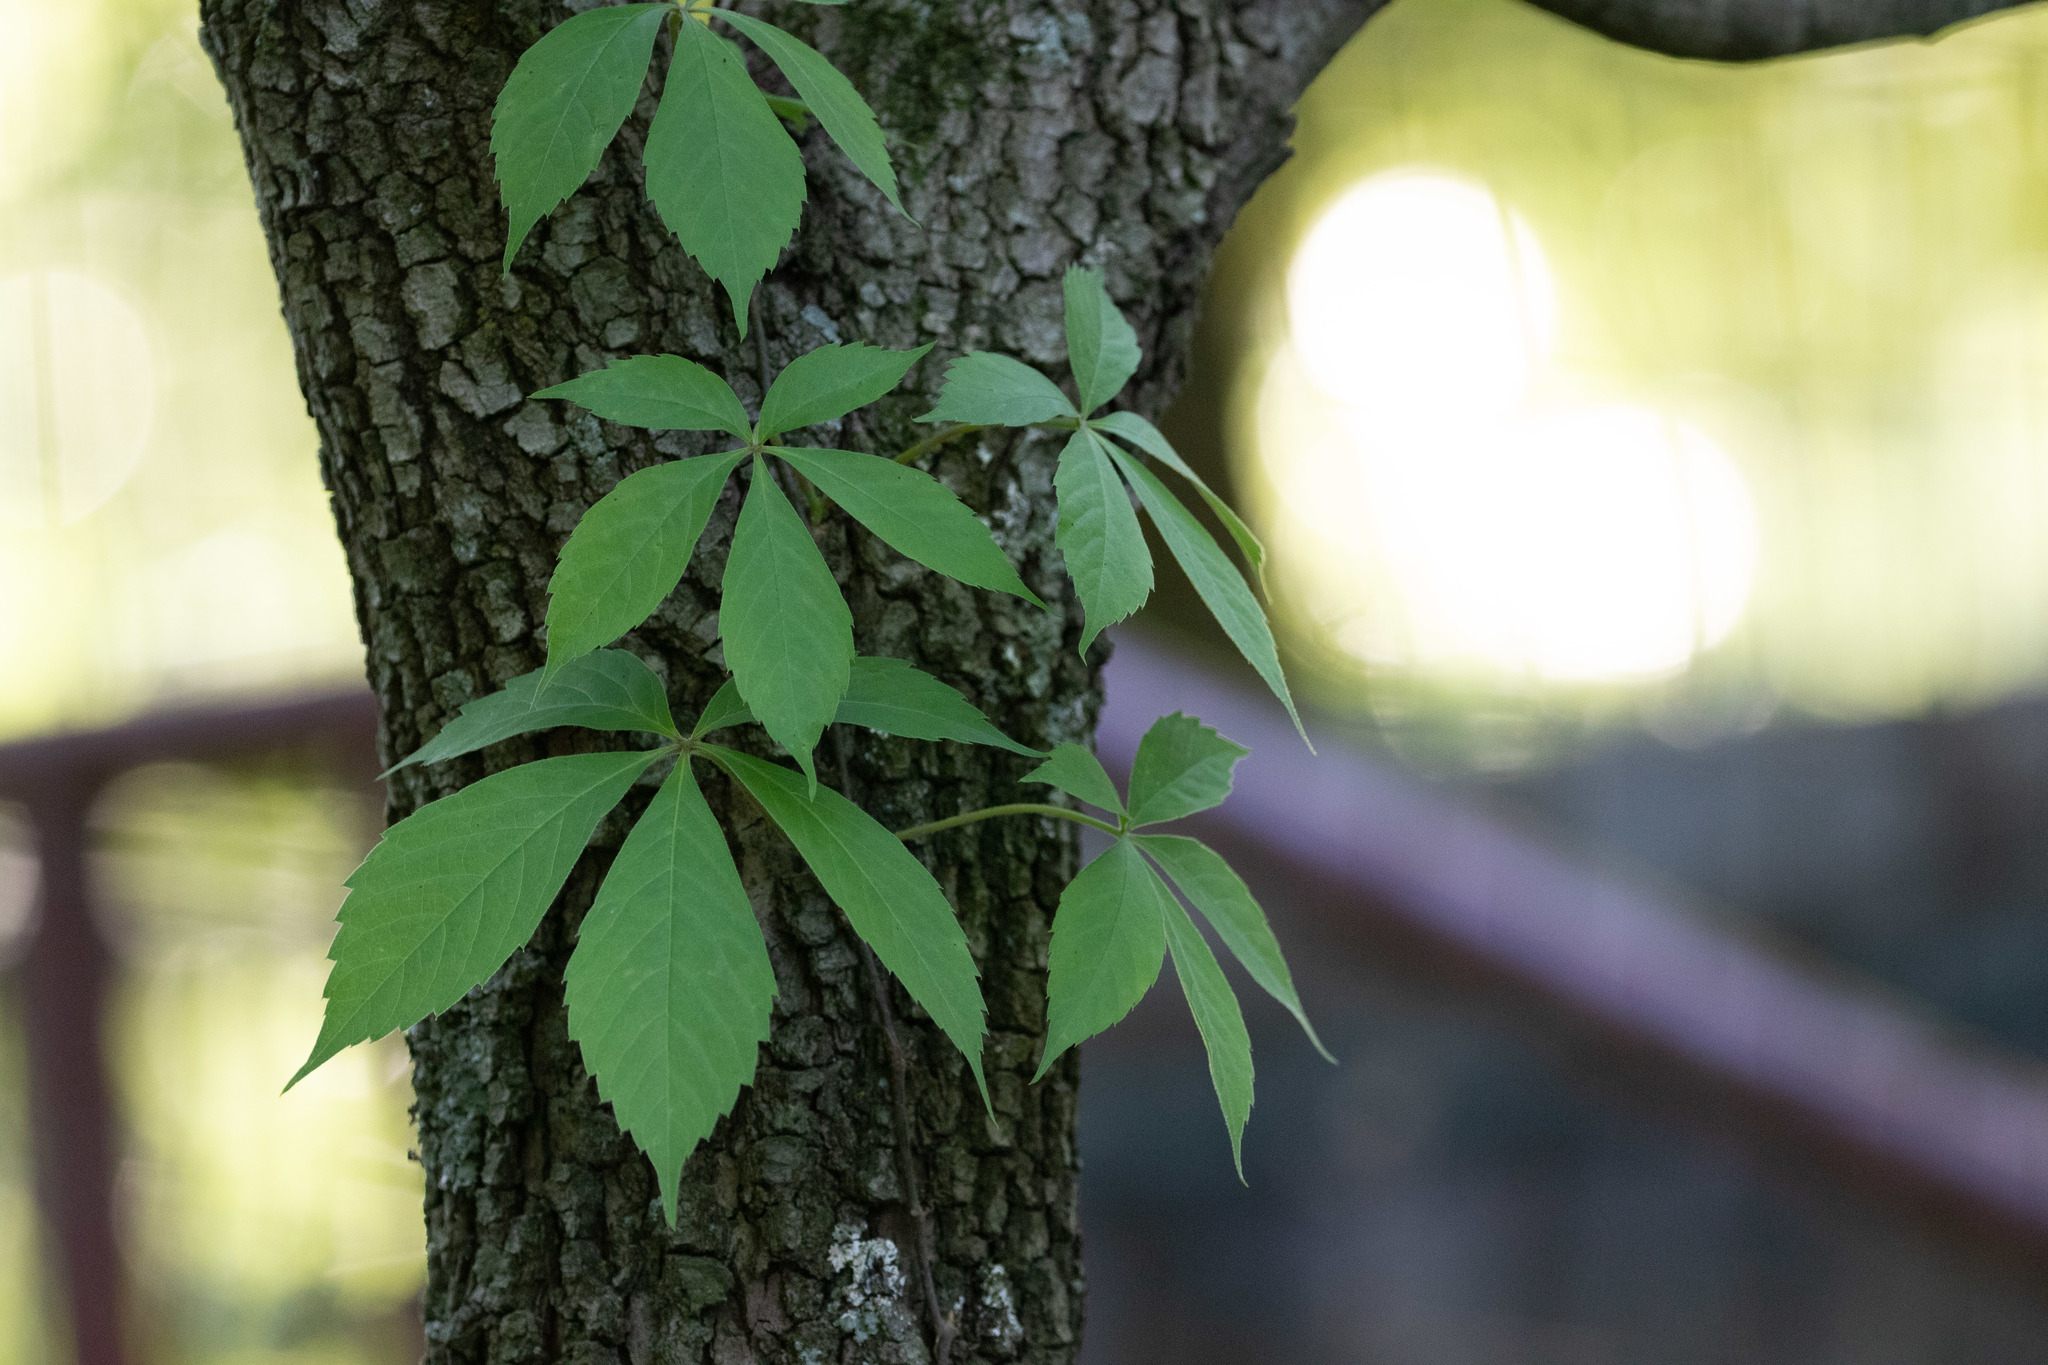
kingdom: Plantae
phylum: Tracheophyta
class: Magnoliopsida
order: Vitales
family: Vitaceae
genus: Parthenocissus
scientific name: Parthenocissus quinquefolia
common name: Virginia-creeper
